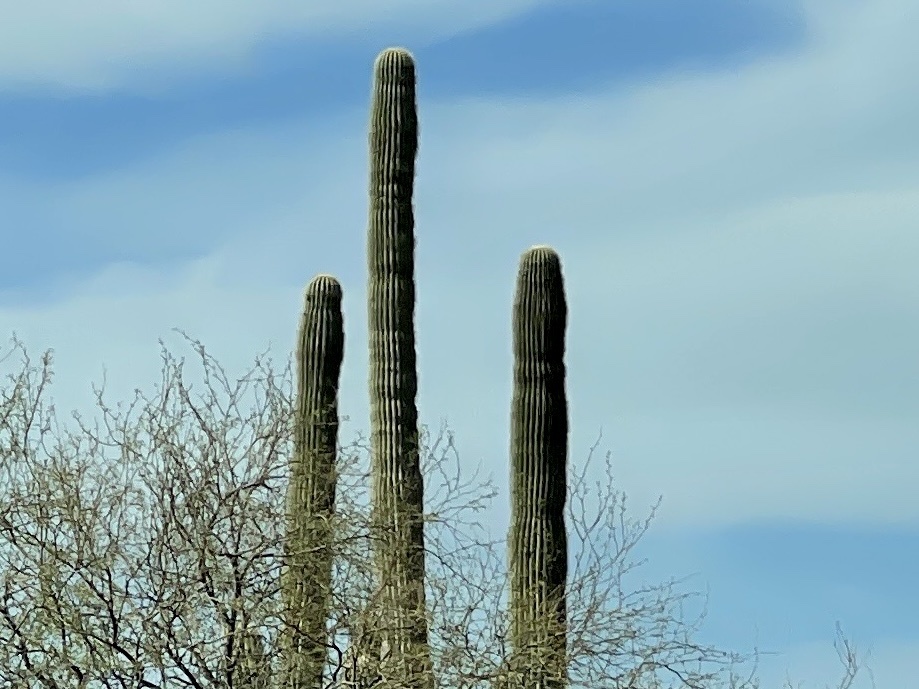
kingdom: Plantae
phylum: Tracheophyta
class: Magnoliopsida
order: Caryophyllales
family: Cactaceae
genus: Carnegiea
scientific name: Carnegiea gigantea
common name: Saguaro
